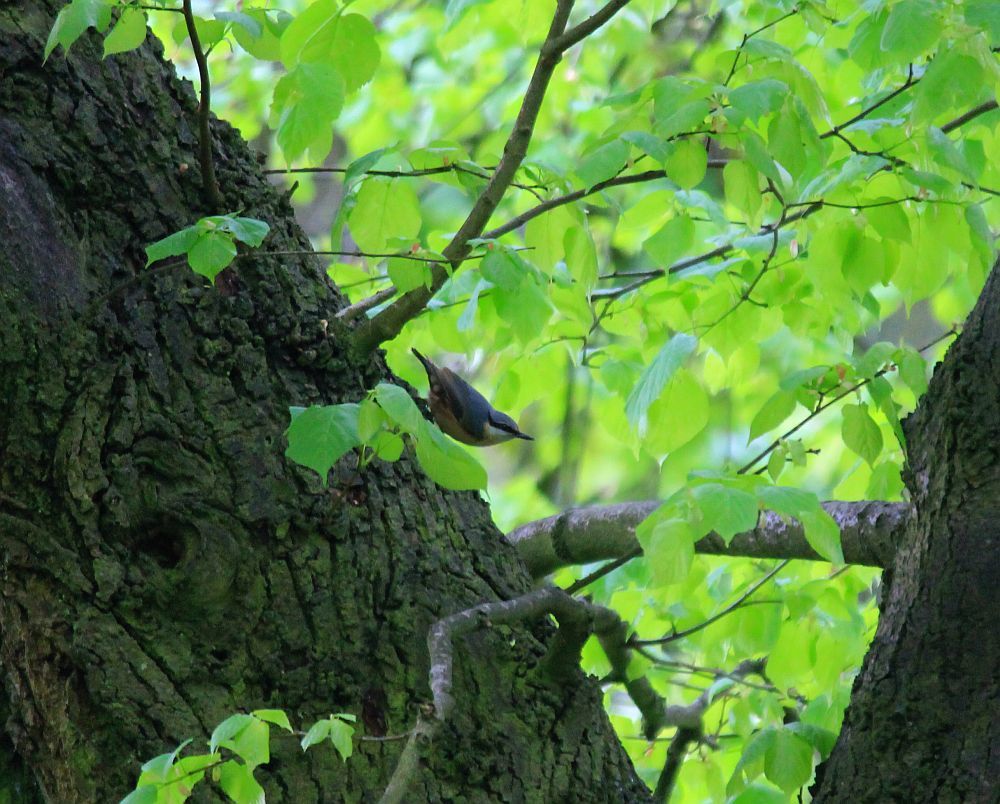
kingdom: Animalia
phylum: Chordata
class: Aves
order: Passeriformes
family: Sittidae
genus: Sitta
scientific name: Sitta europaea
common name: Eurasian nuthatch
